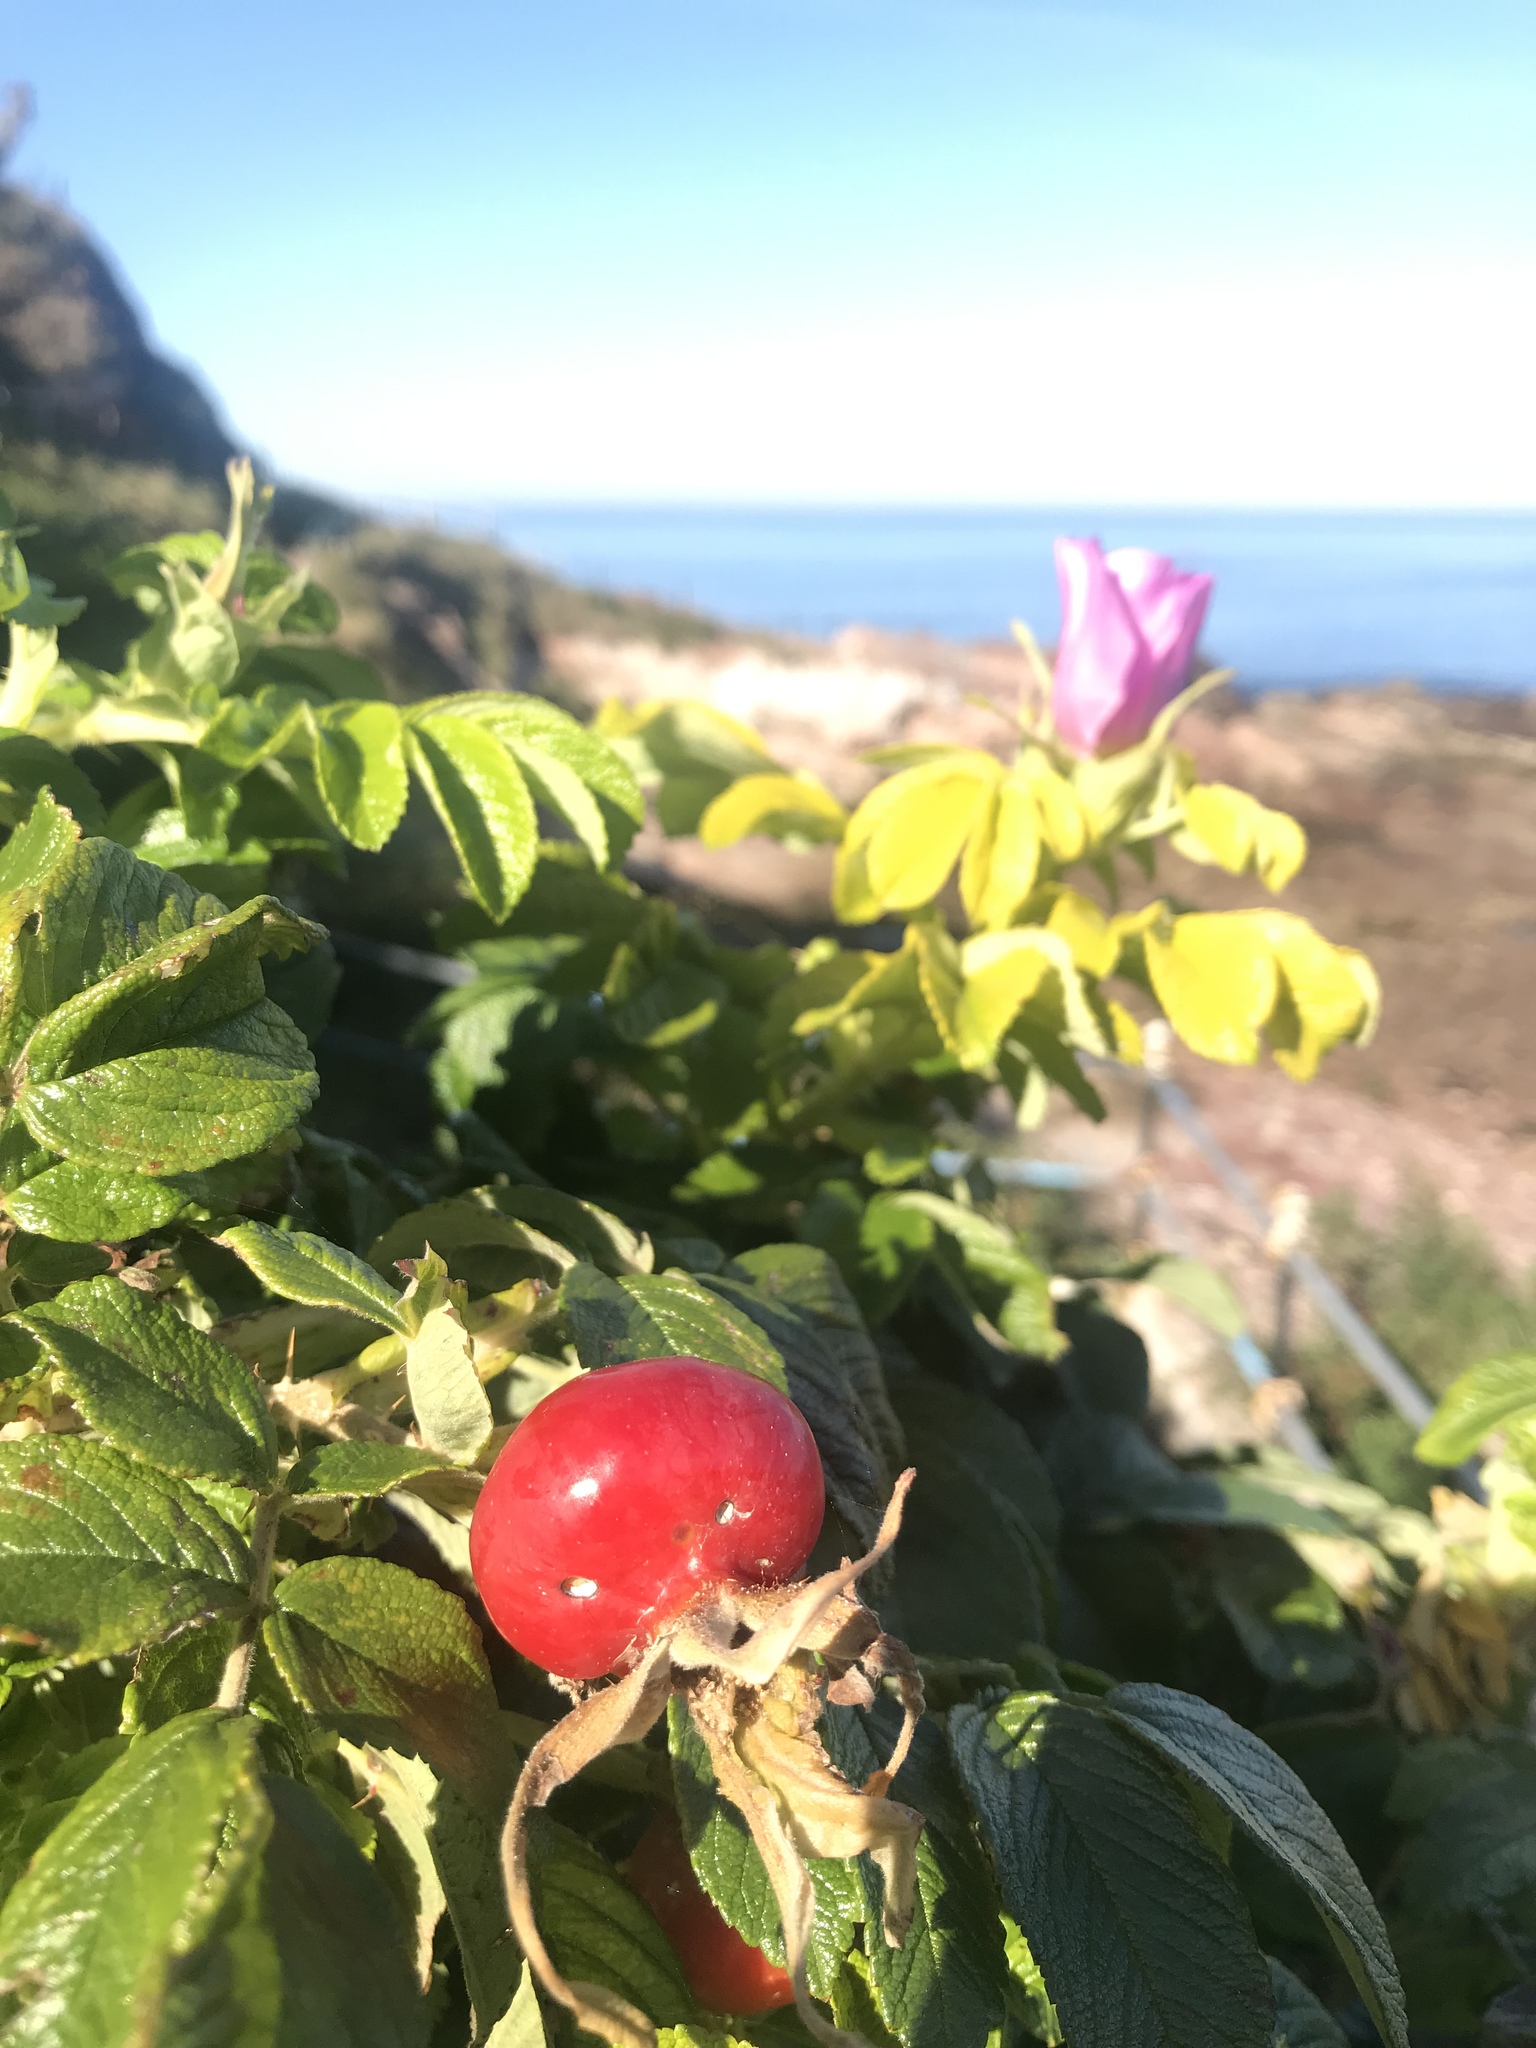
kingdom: Plantae
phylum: Tracheophyta
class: Magnoliopsida
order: Rosales
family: Rosaceae
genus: Rosa
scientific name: Rosa rugosa
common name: Japanese rose
